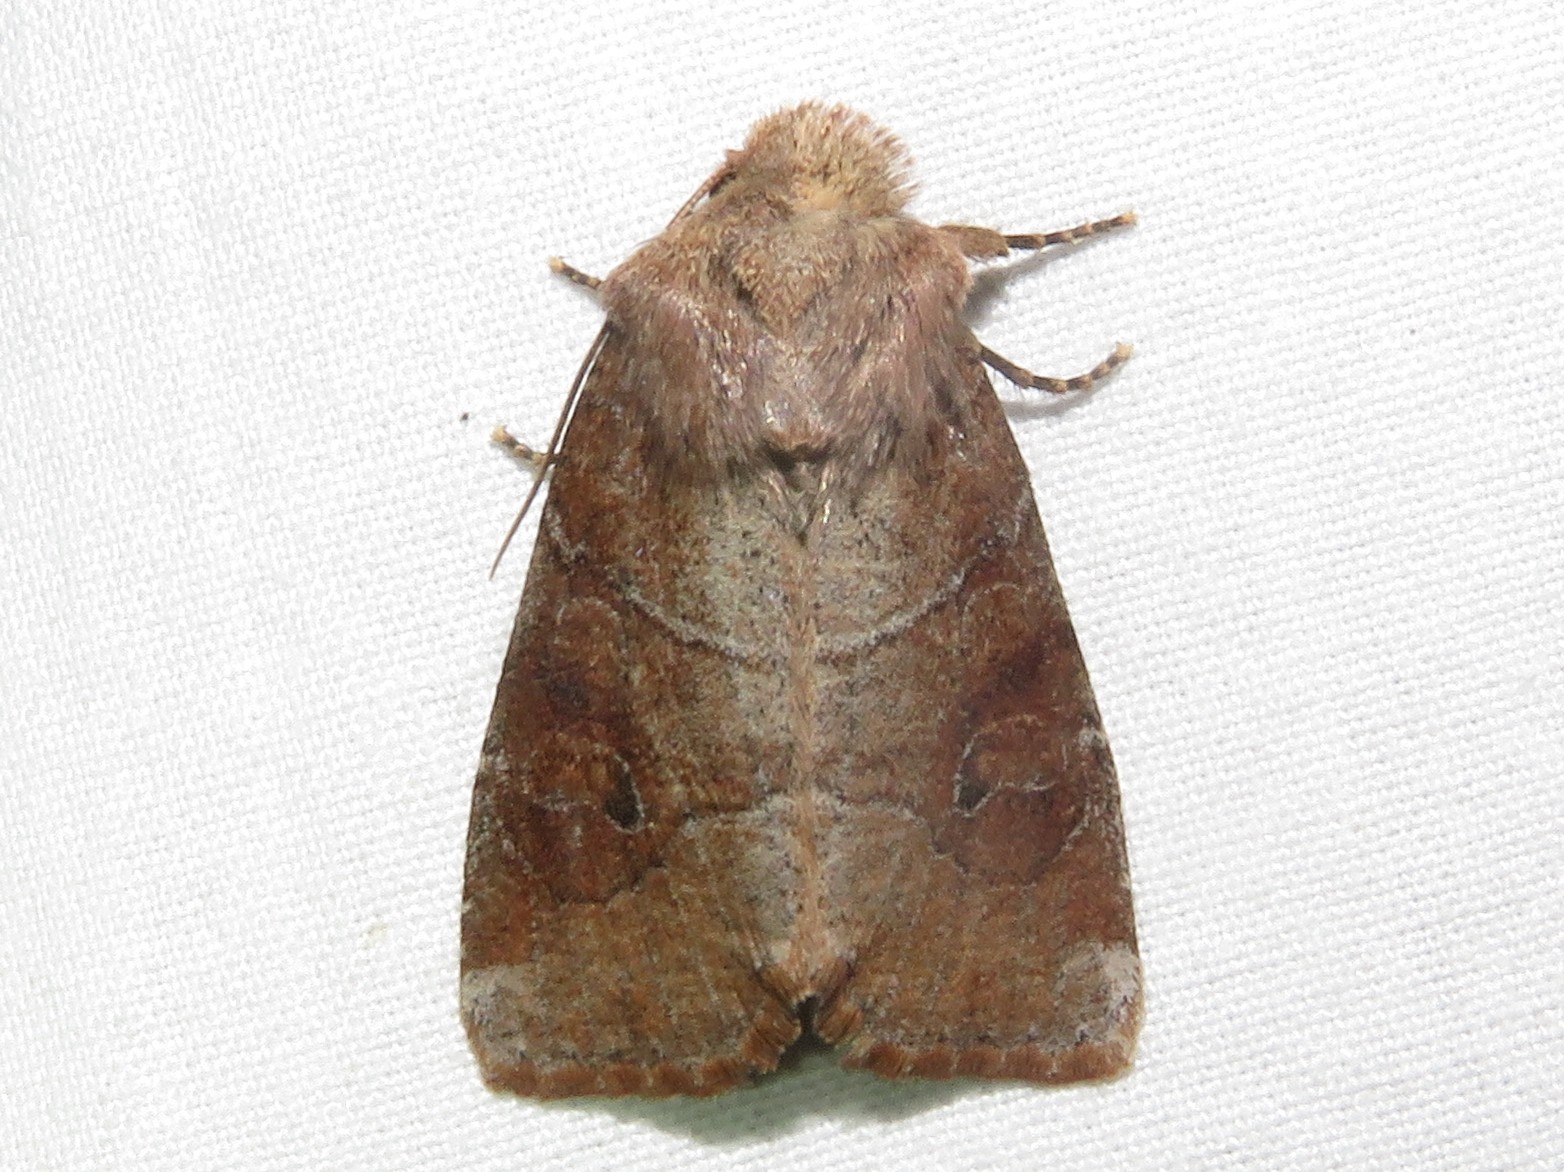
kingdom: Animalia
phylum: Arthropoda
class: Insecta
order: Lepidoptera
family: Noctuidae
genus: Crocigrapha
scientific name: Crocigrapha normani
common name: Norman's quaker
